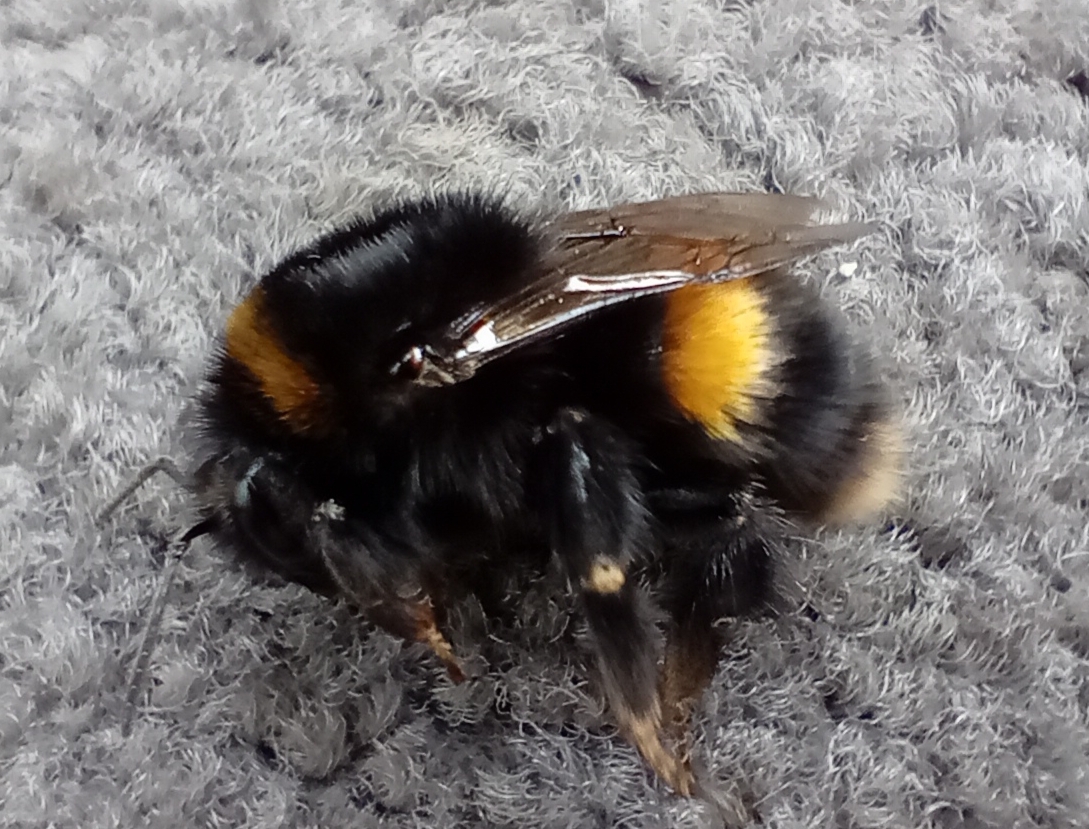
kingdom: Animalia
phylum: Arthropoda
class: Insecta
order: Hymenoptera
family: Apidae
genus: Bombus
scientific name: Bombus terrestris
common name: Buff-tailed bumblebee
